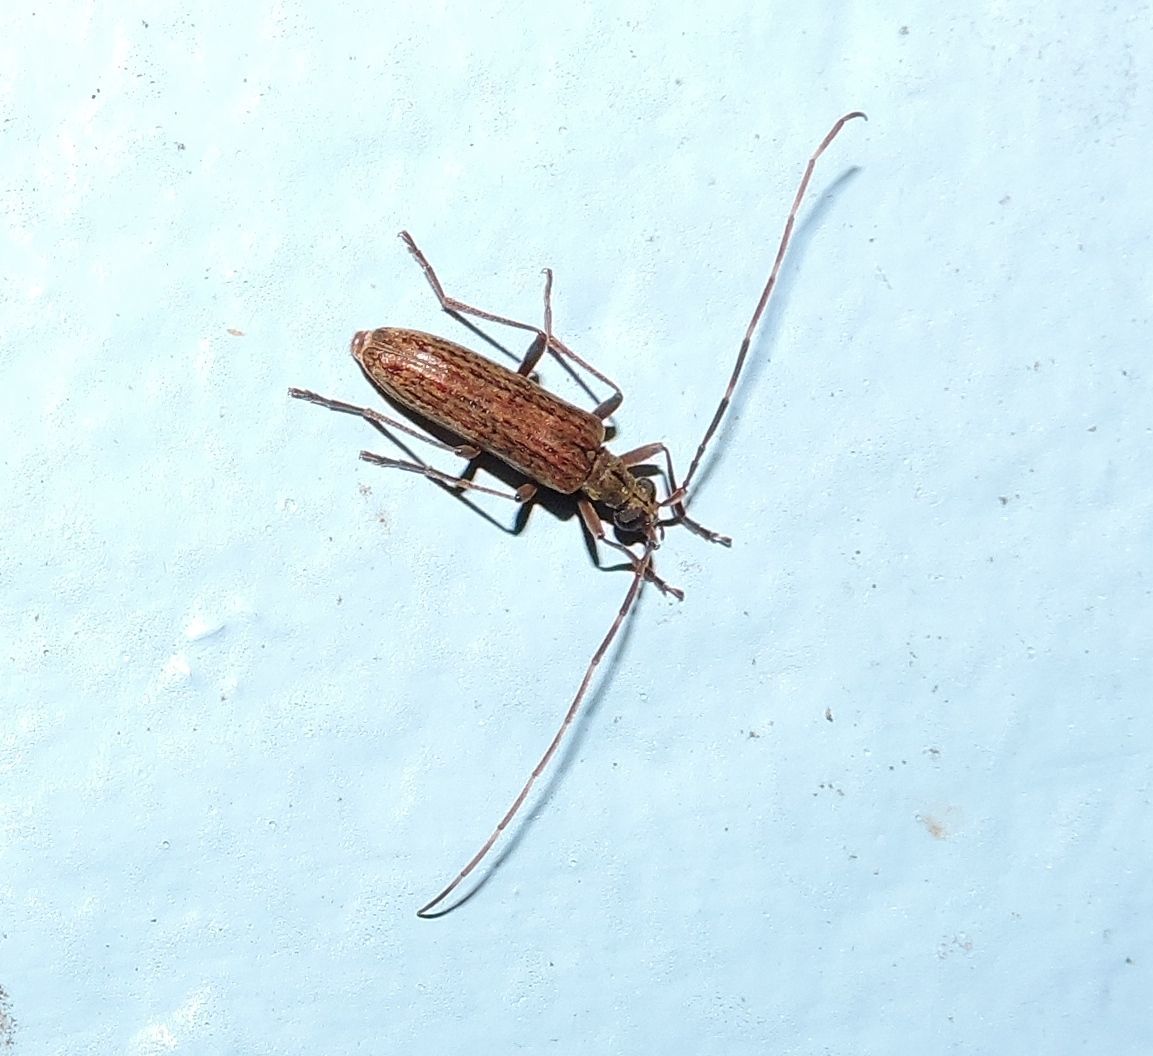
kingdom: Animalia
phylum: Arthropoda
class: Insecta
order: Coleoptera
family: Cerambycidae
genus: Centrodera
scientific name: Centrodera sublineata
